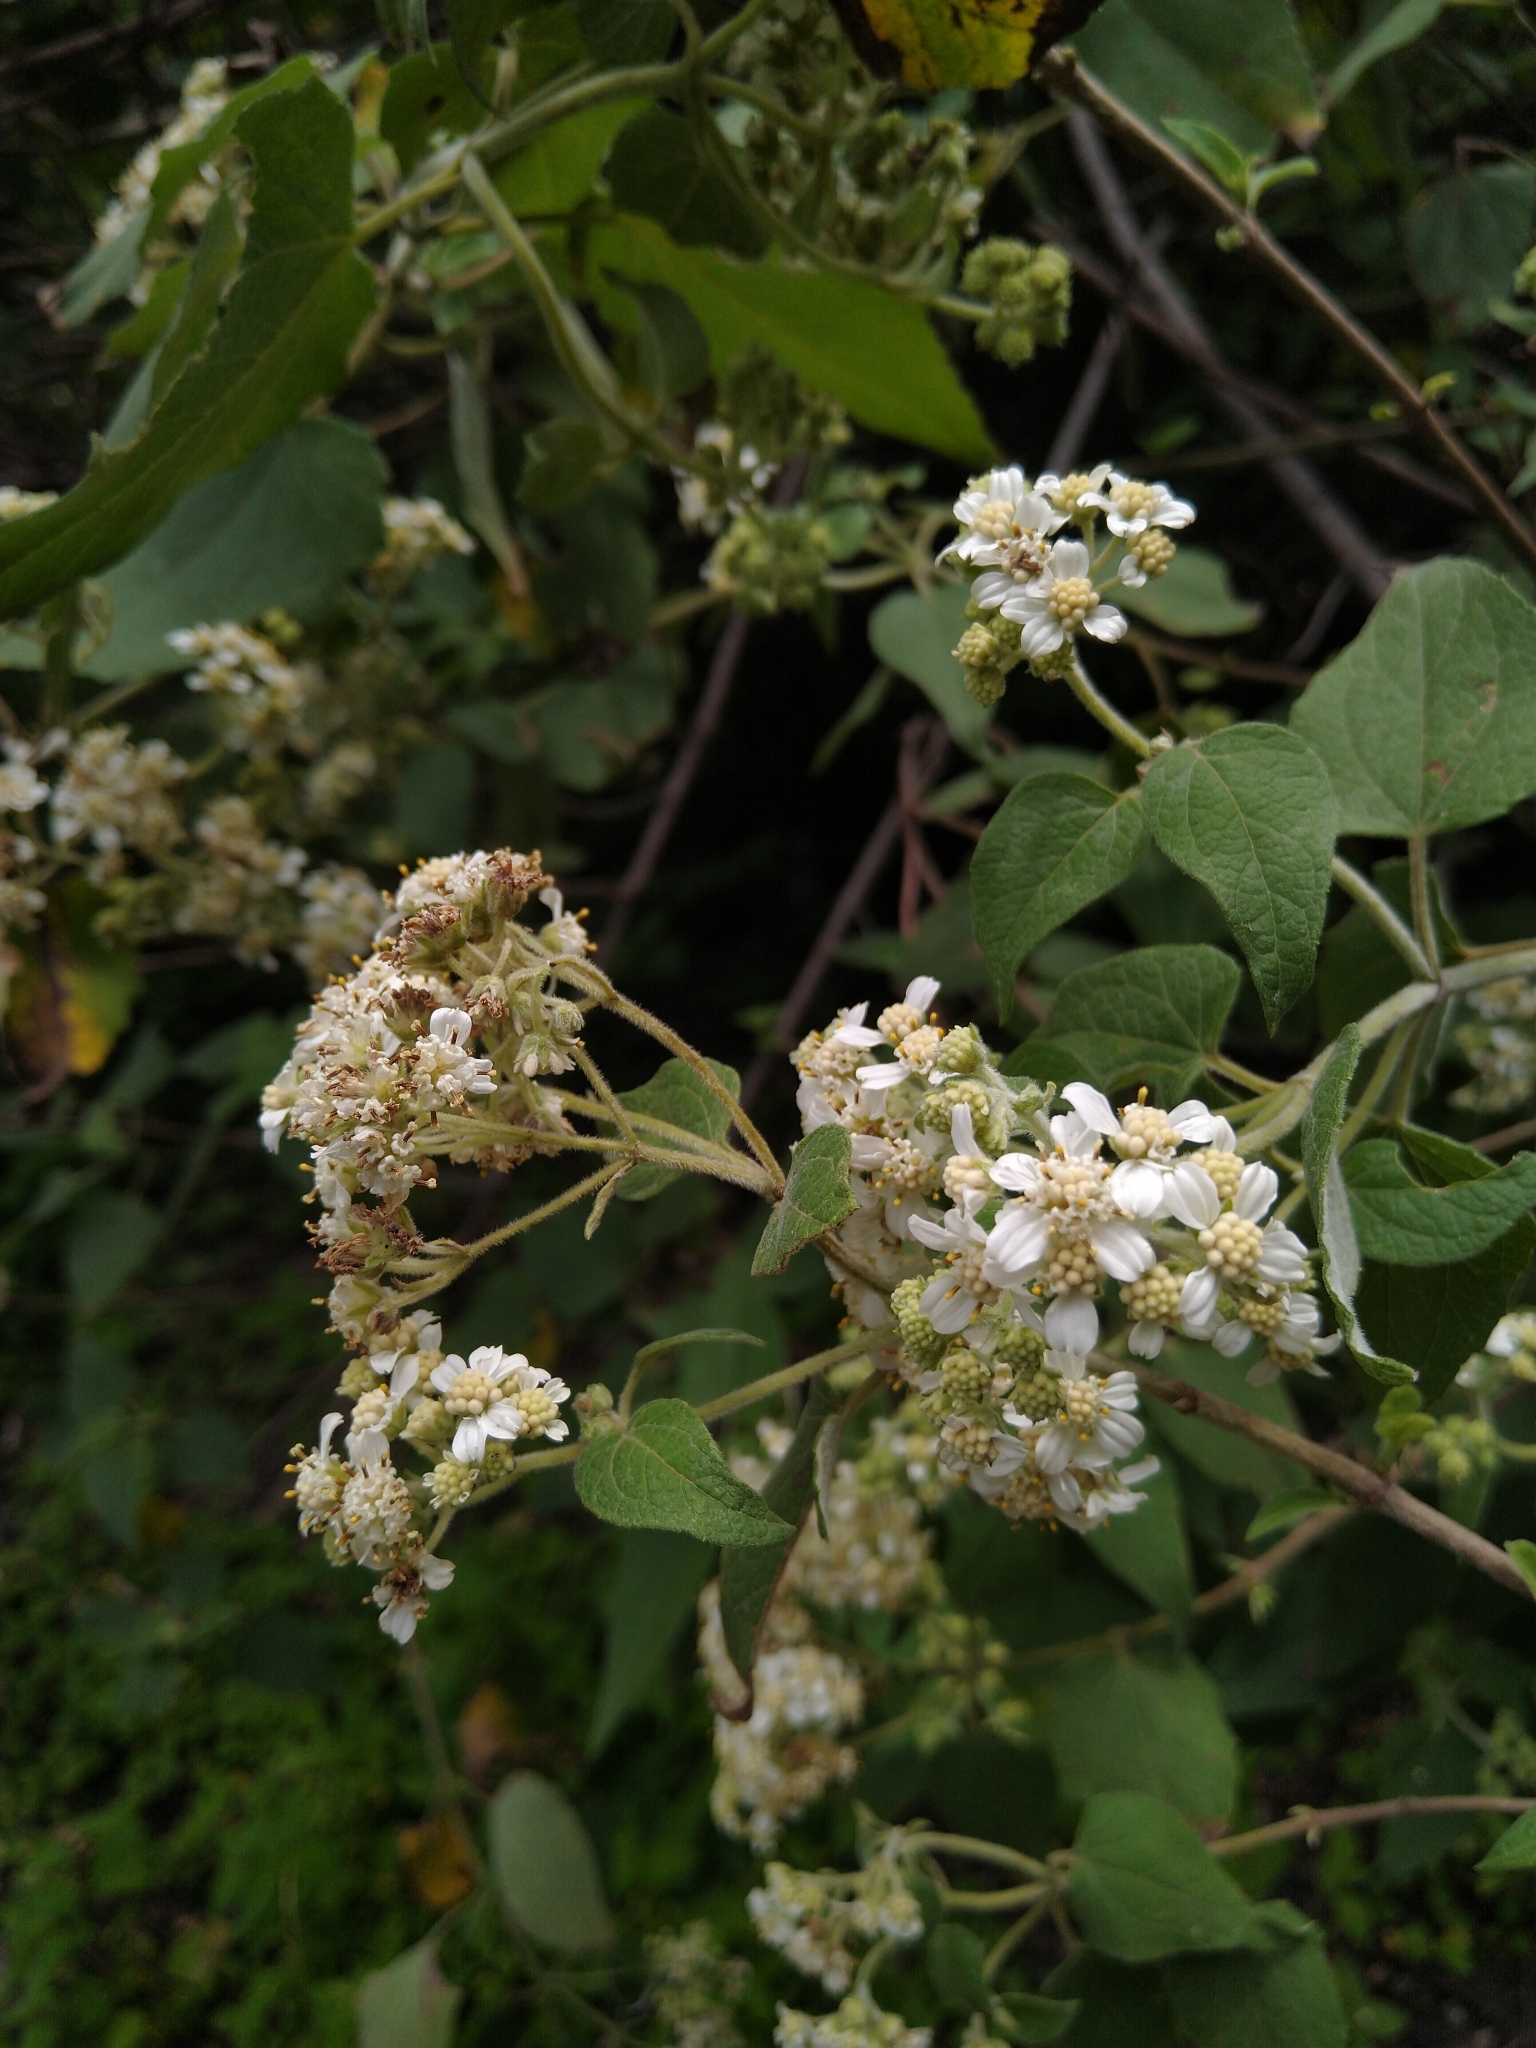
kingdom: Plantae
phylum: Tracheophyta
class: Magnoliopsida
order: Asterales
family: Asteraceae
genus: Montanoa
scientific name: Montanoa tomentosa
